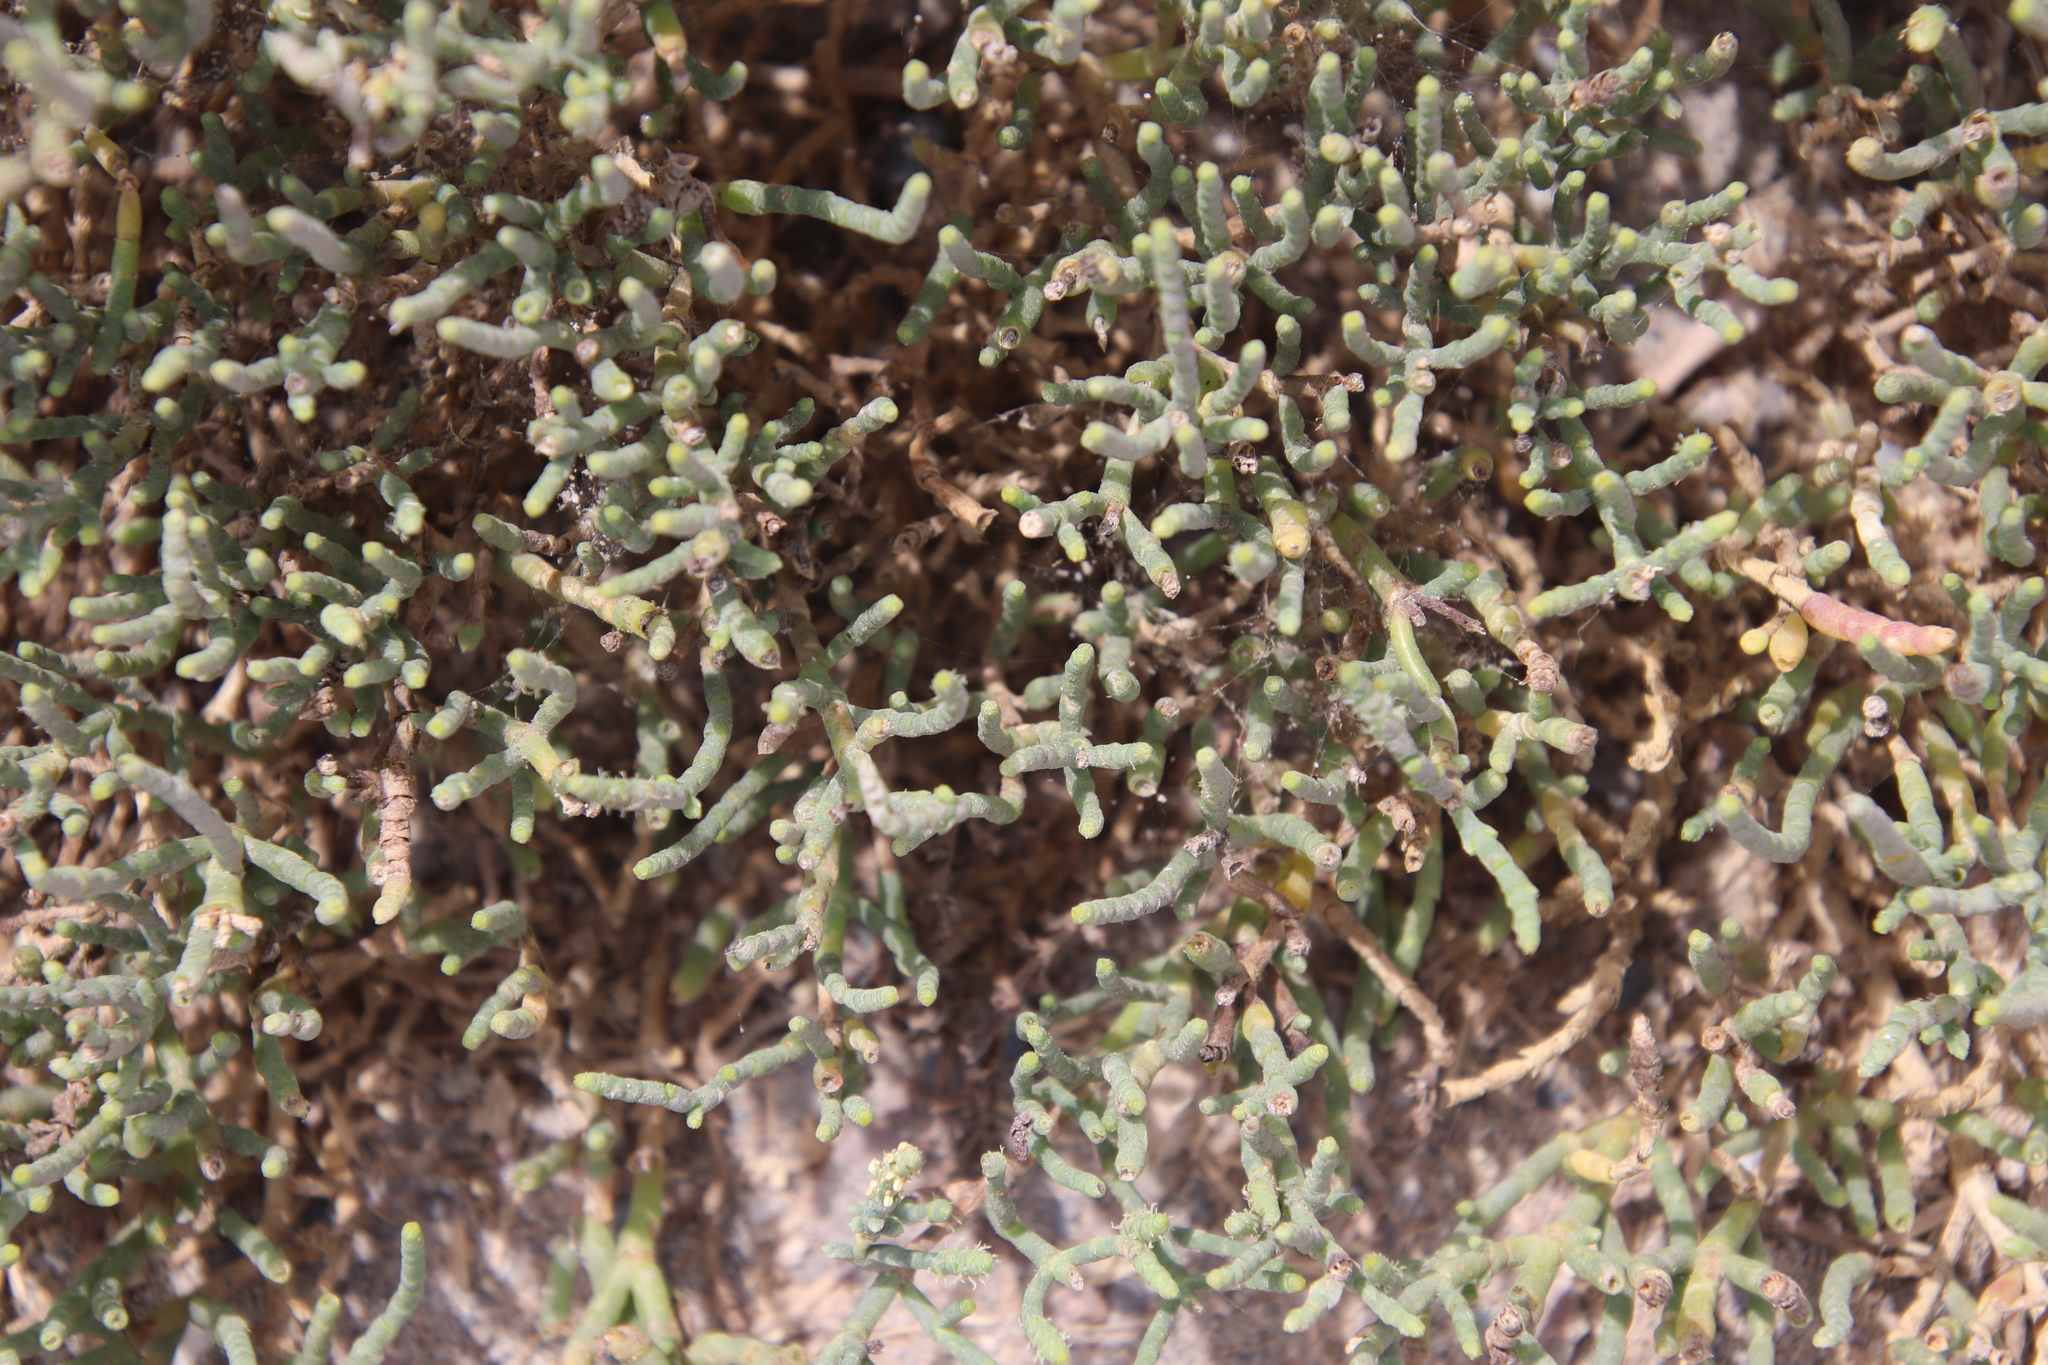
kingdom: Plantae
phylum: Tracheophyta
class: Magnoliopsida
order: Caryophyllales
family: Amaranthaceae
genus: Salicornia
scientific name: Salicornia pacifica
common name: Pacific glasswort
